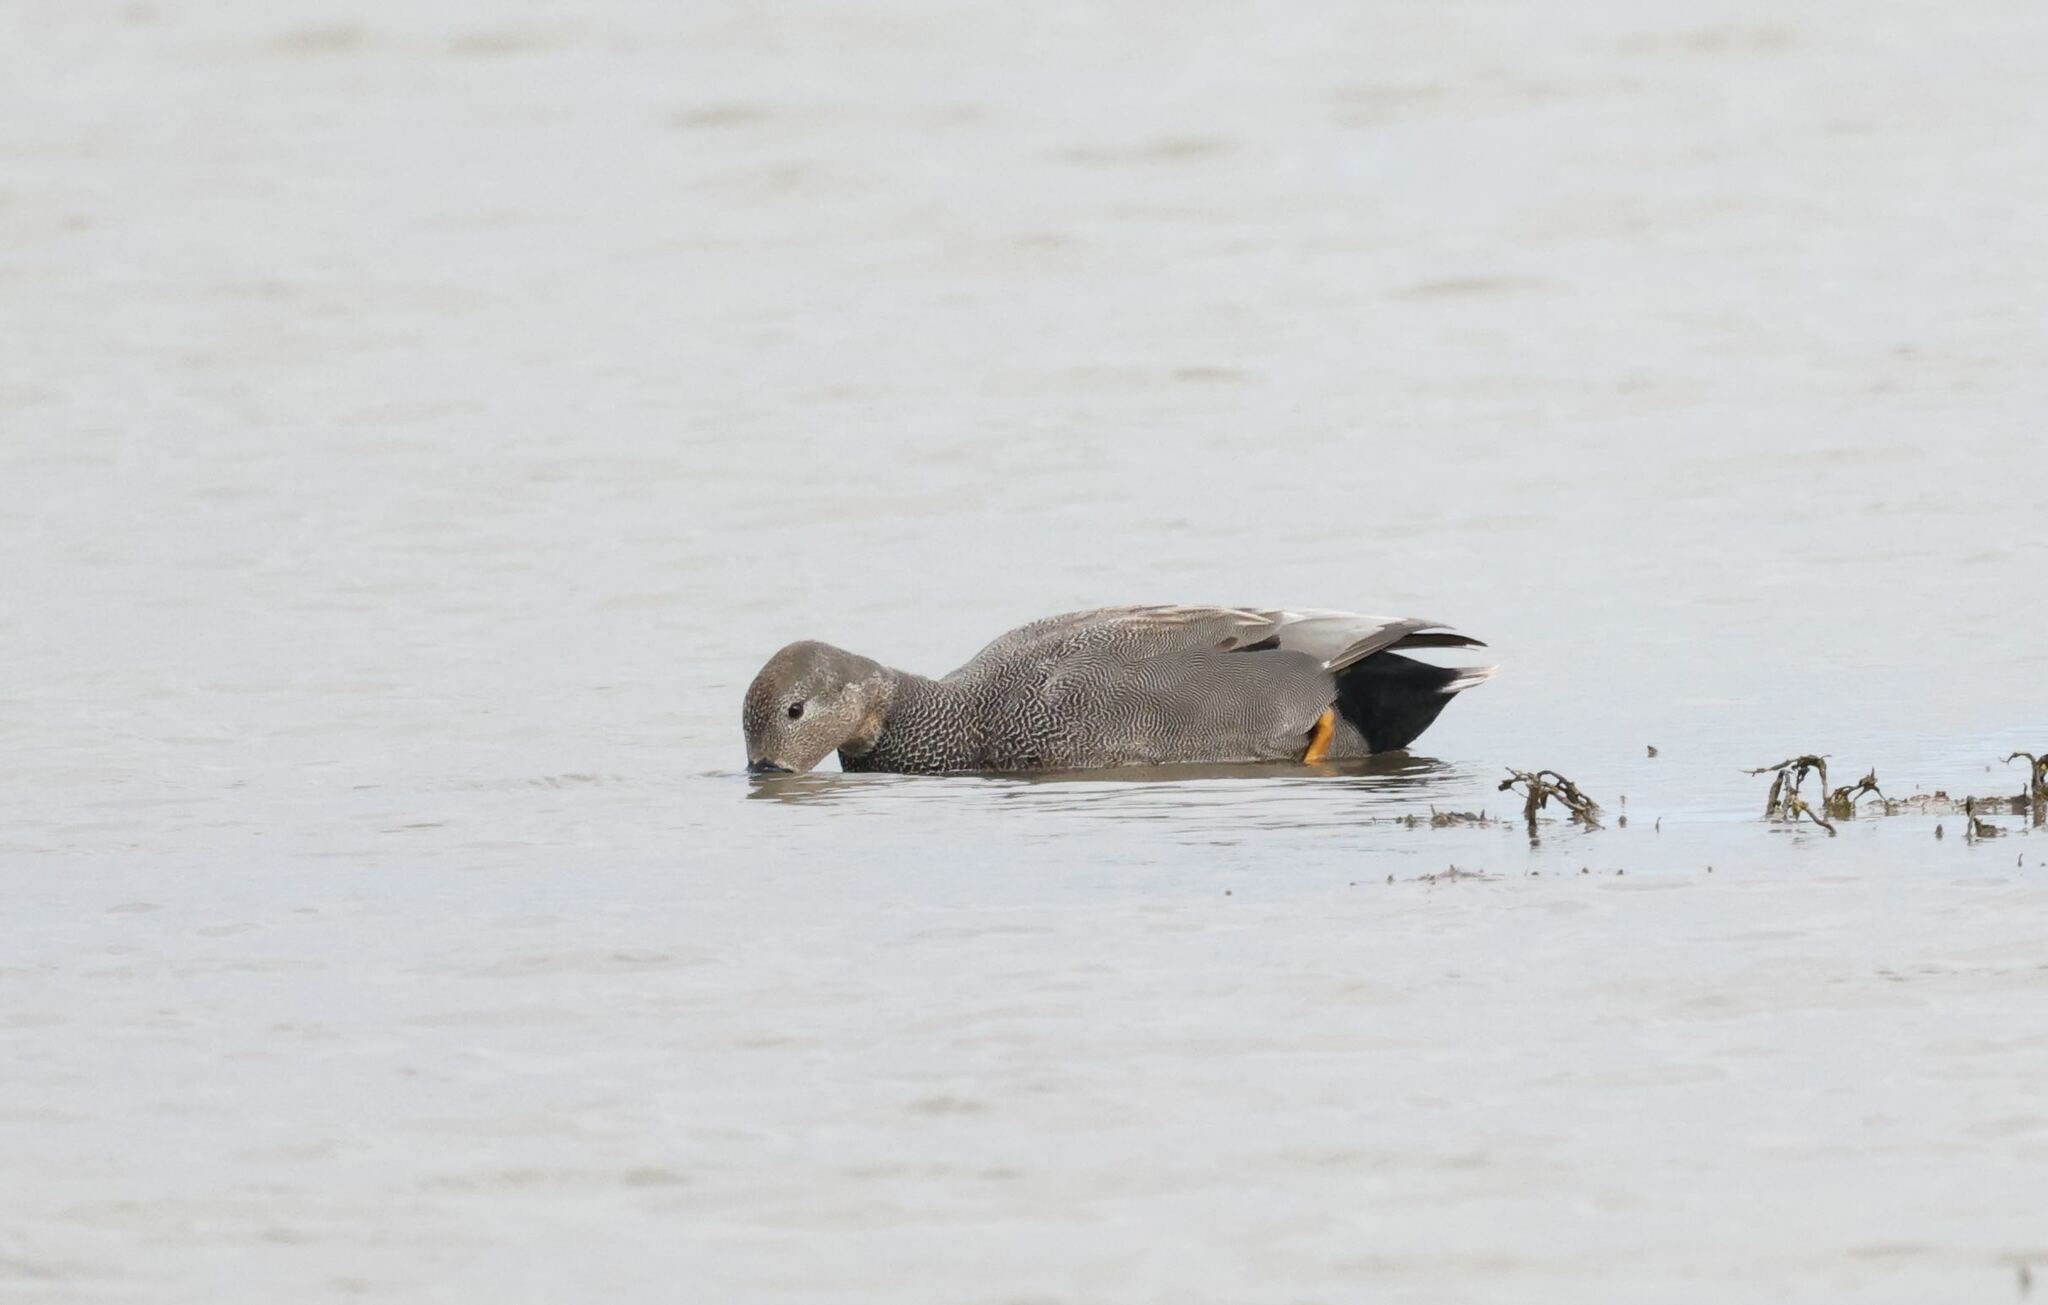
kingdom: Animalia
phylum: Chordata
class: Aves
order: Anseriformes
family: Anatidae
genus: Mareca
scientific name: Mareca strepera
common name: Gadwall
